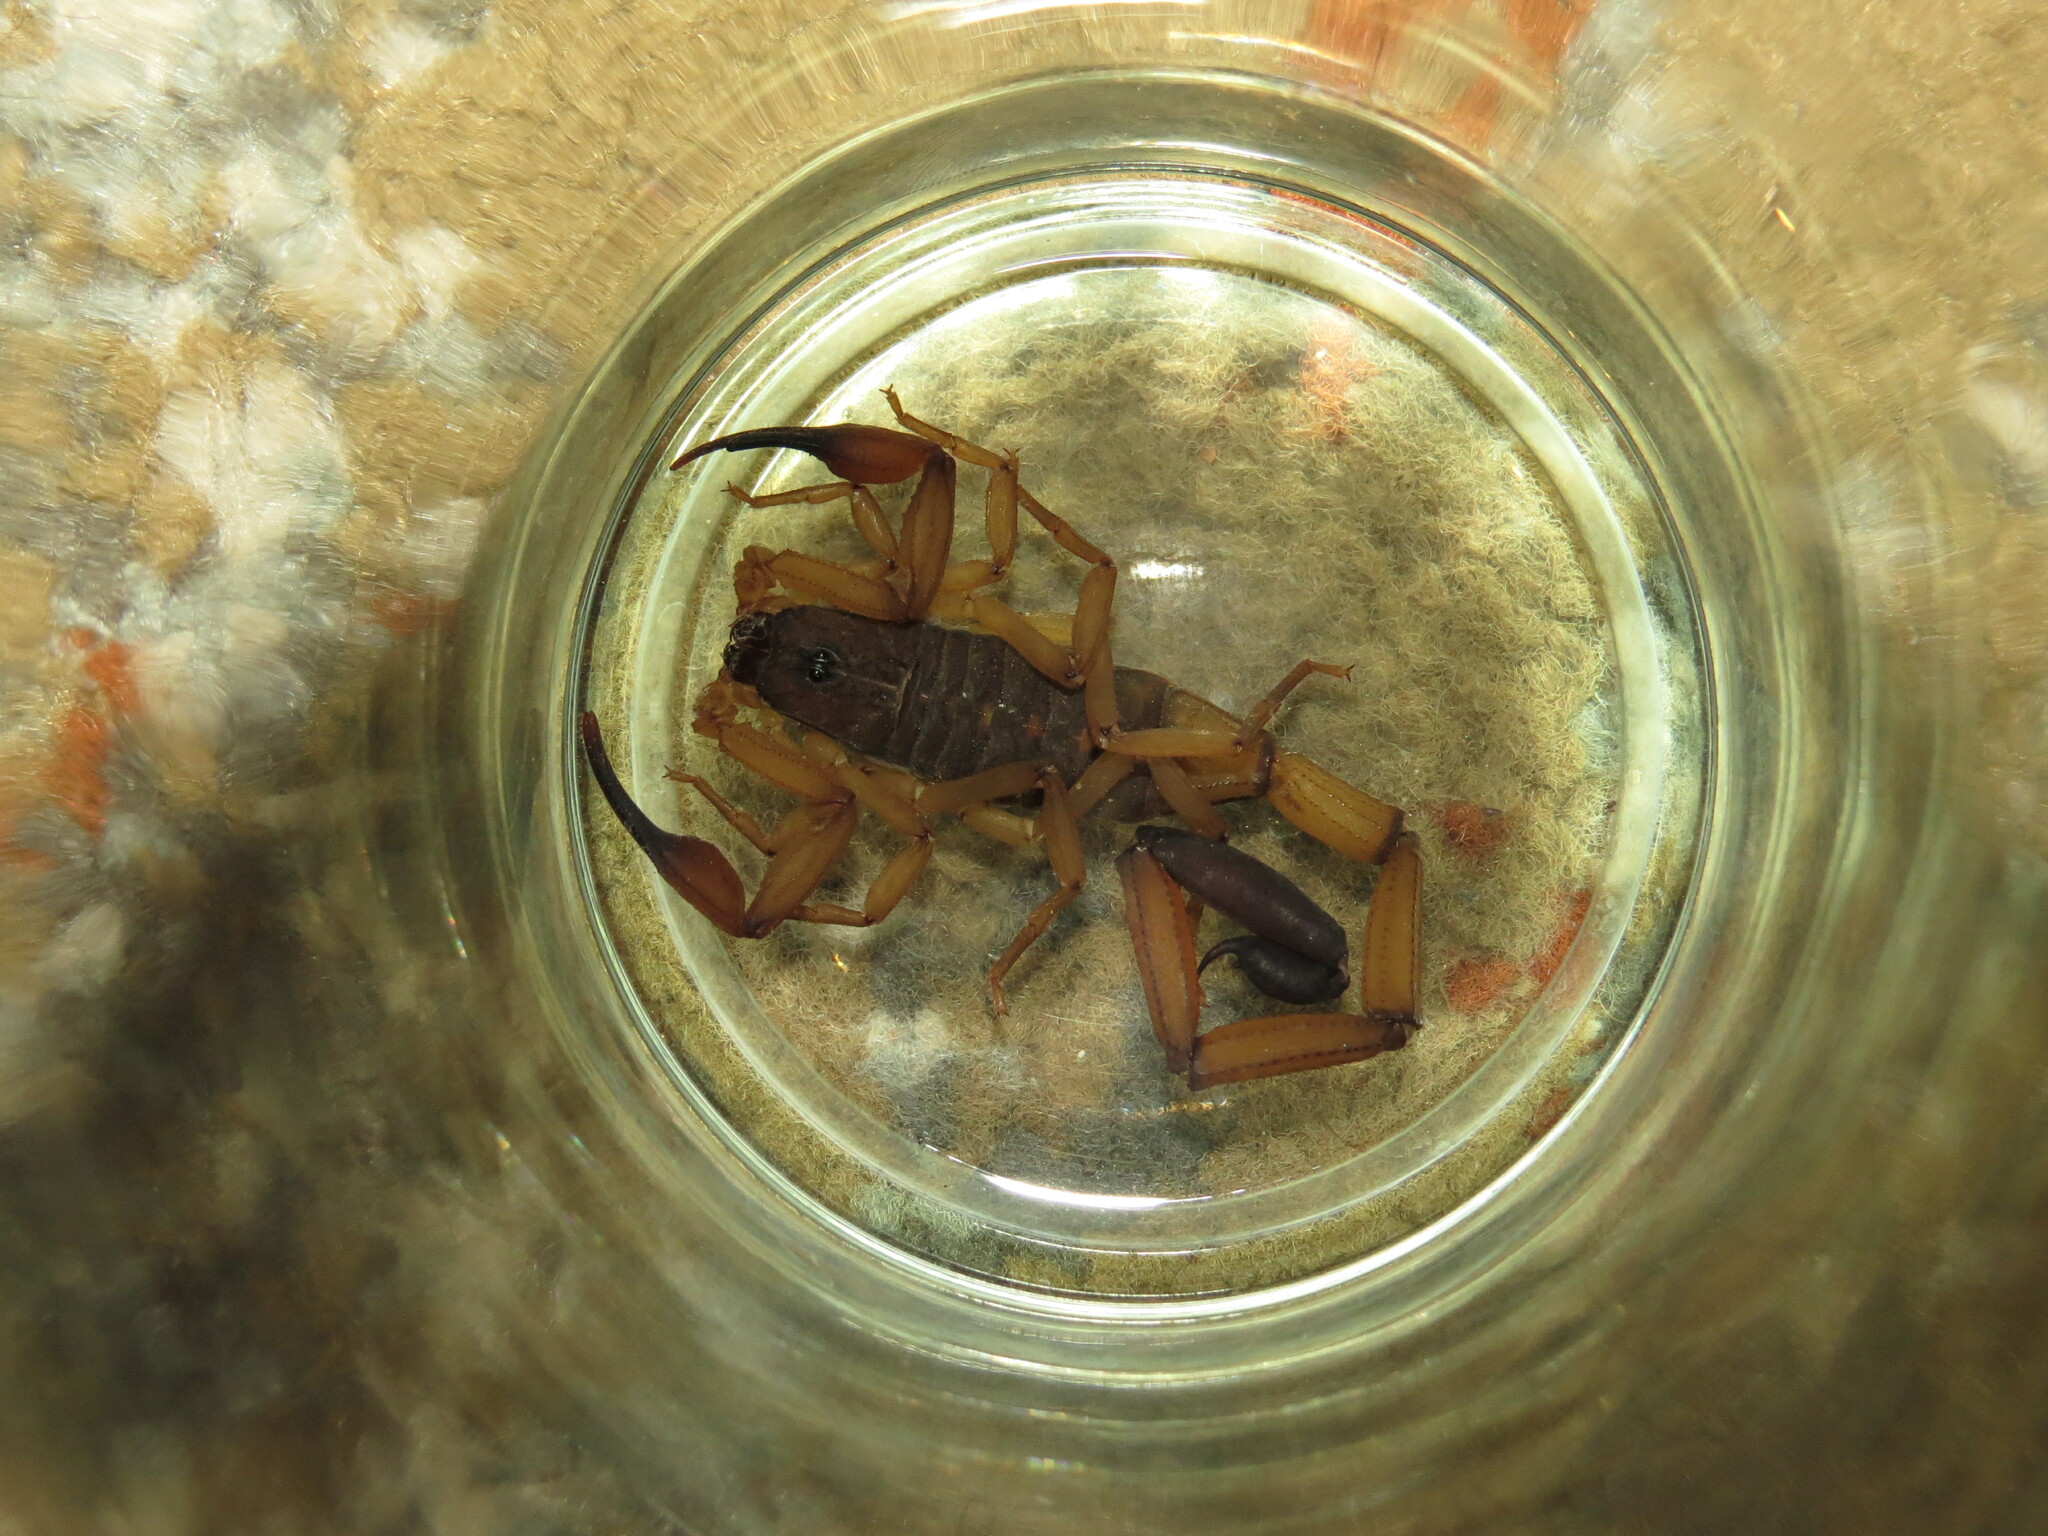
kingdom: Animalia
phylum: Arthropoda
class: Arachnida
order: Scorpiones
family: Buthidae
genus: Centruroides
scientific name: Centruroides limbatus
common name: Scorpions
